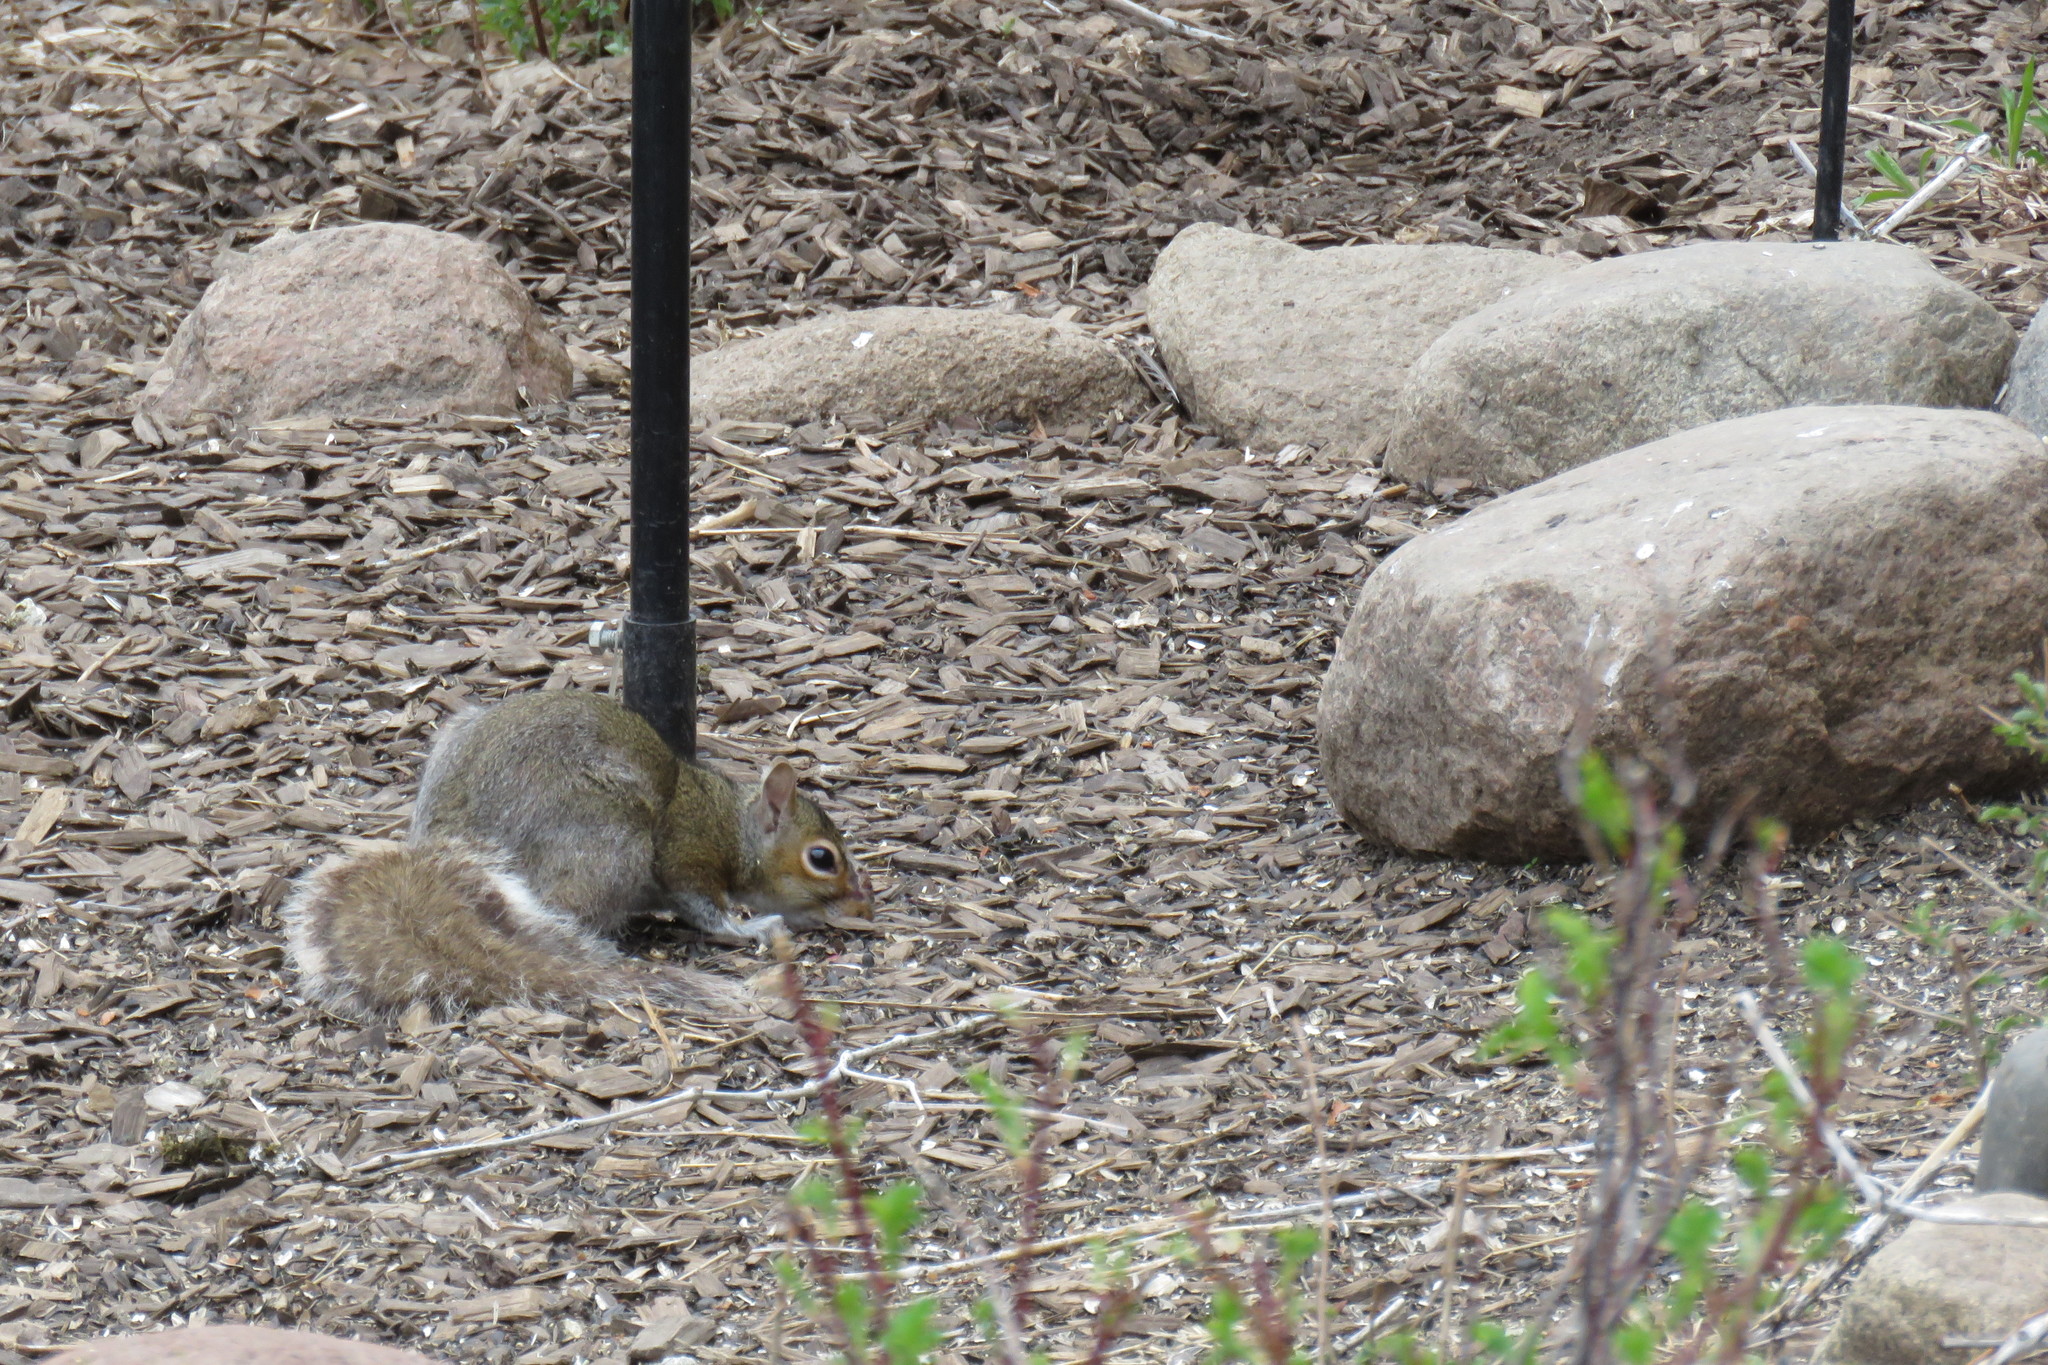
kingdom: Animalia
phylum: Chordata
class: Mammalia
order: Rodentia
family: Sciuridae
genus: Sciurus
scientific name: Sciurus carolinensis
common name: Eastern gray squirrel
